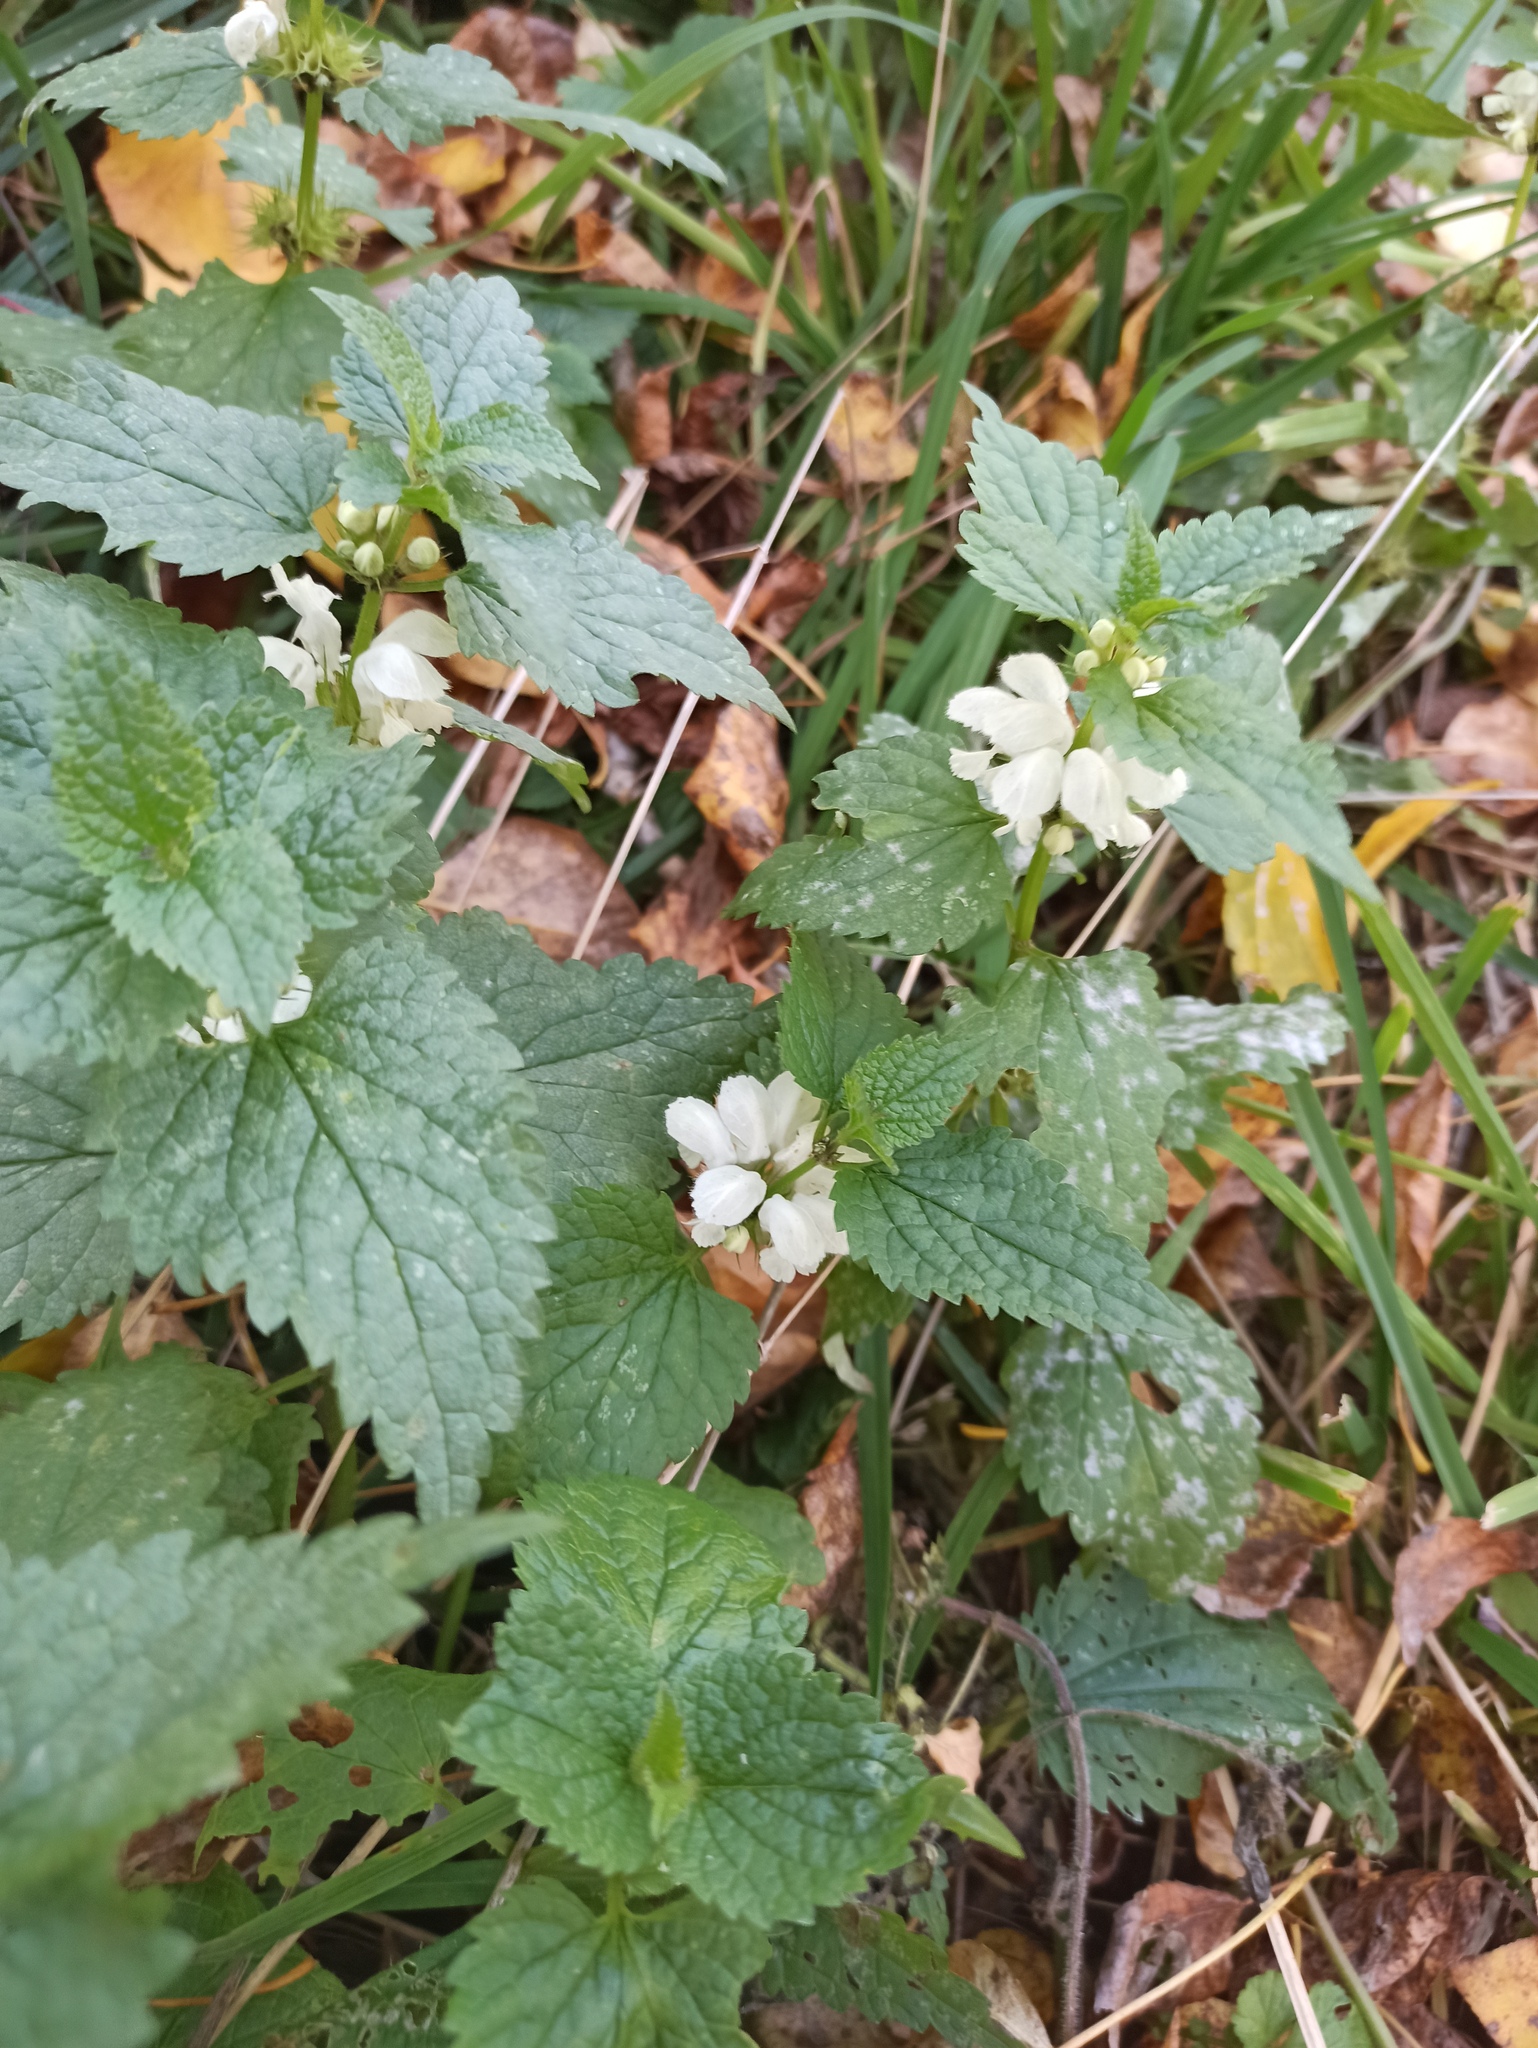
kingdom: Plantae
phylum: Tracheophyta
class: Magnoliopsida
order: Lamiales
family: Lamiaceae
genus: Lamium
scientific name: Lamium album
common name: White dead-nettle
